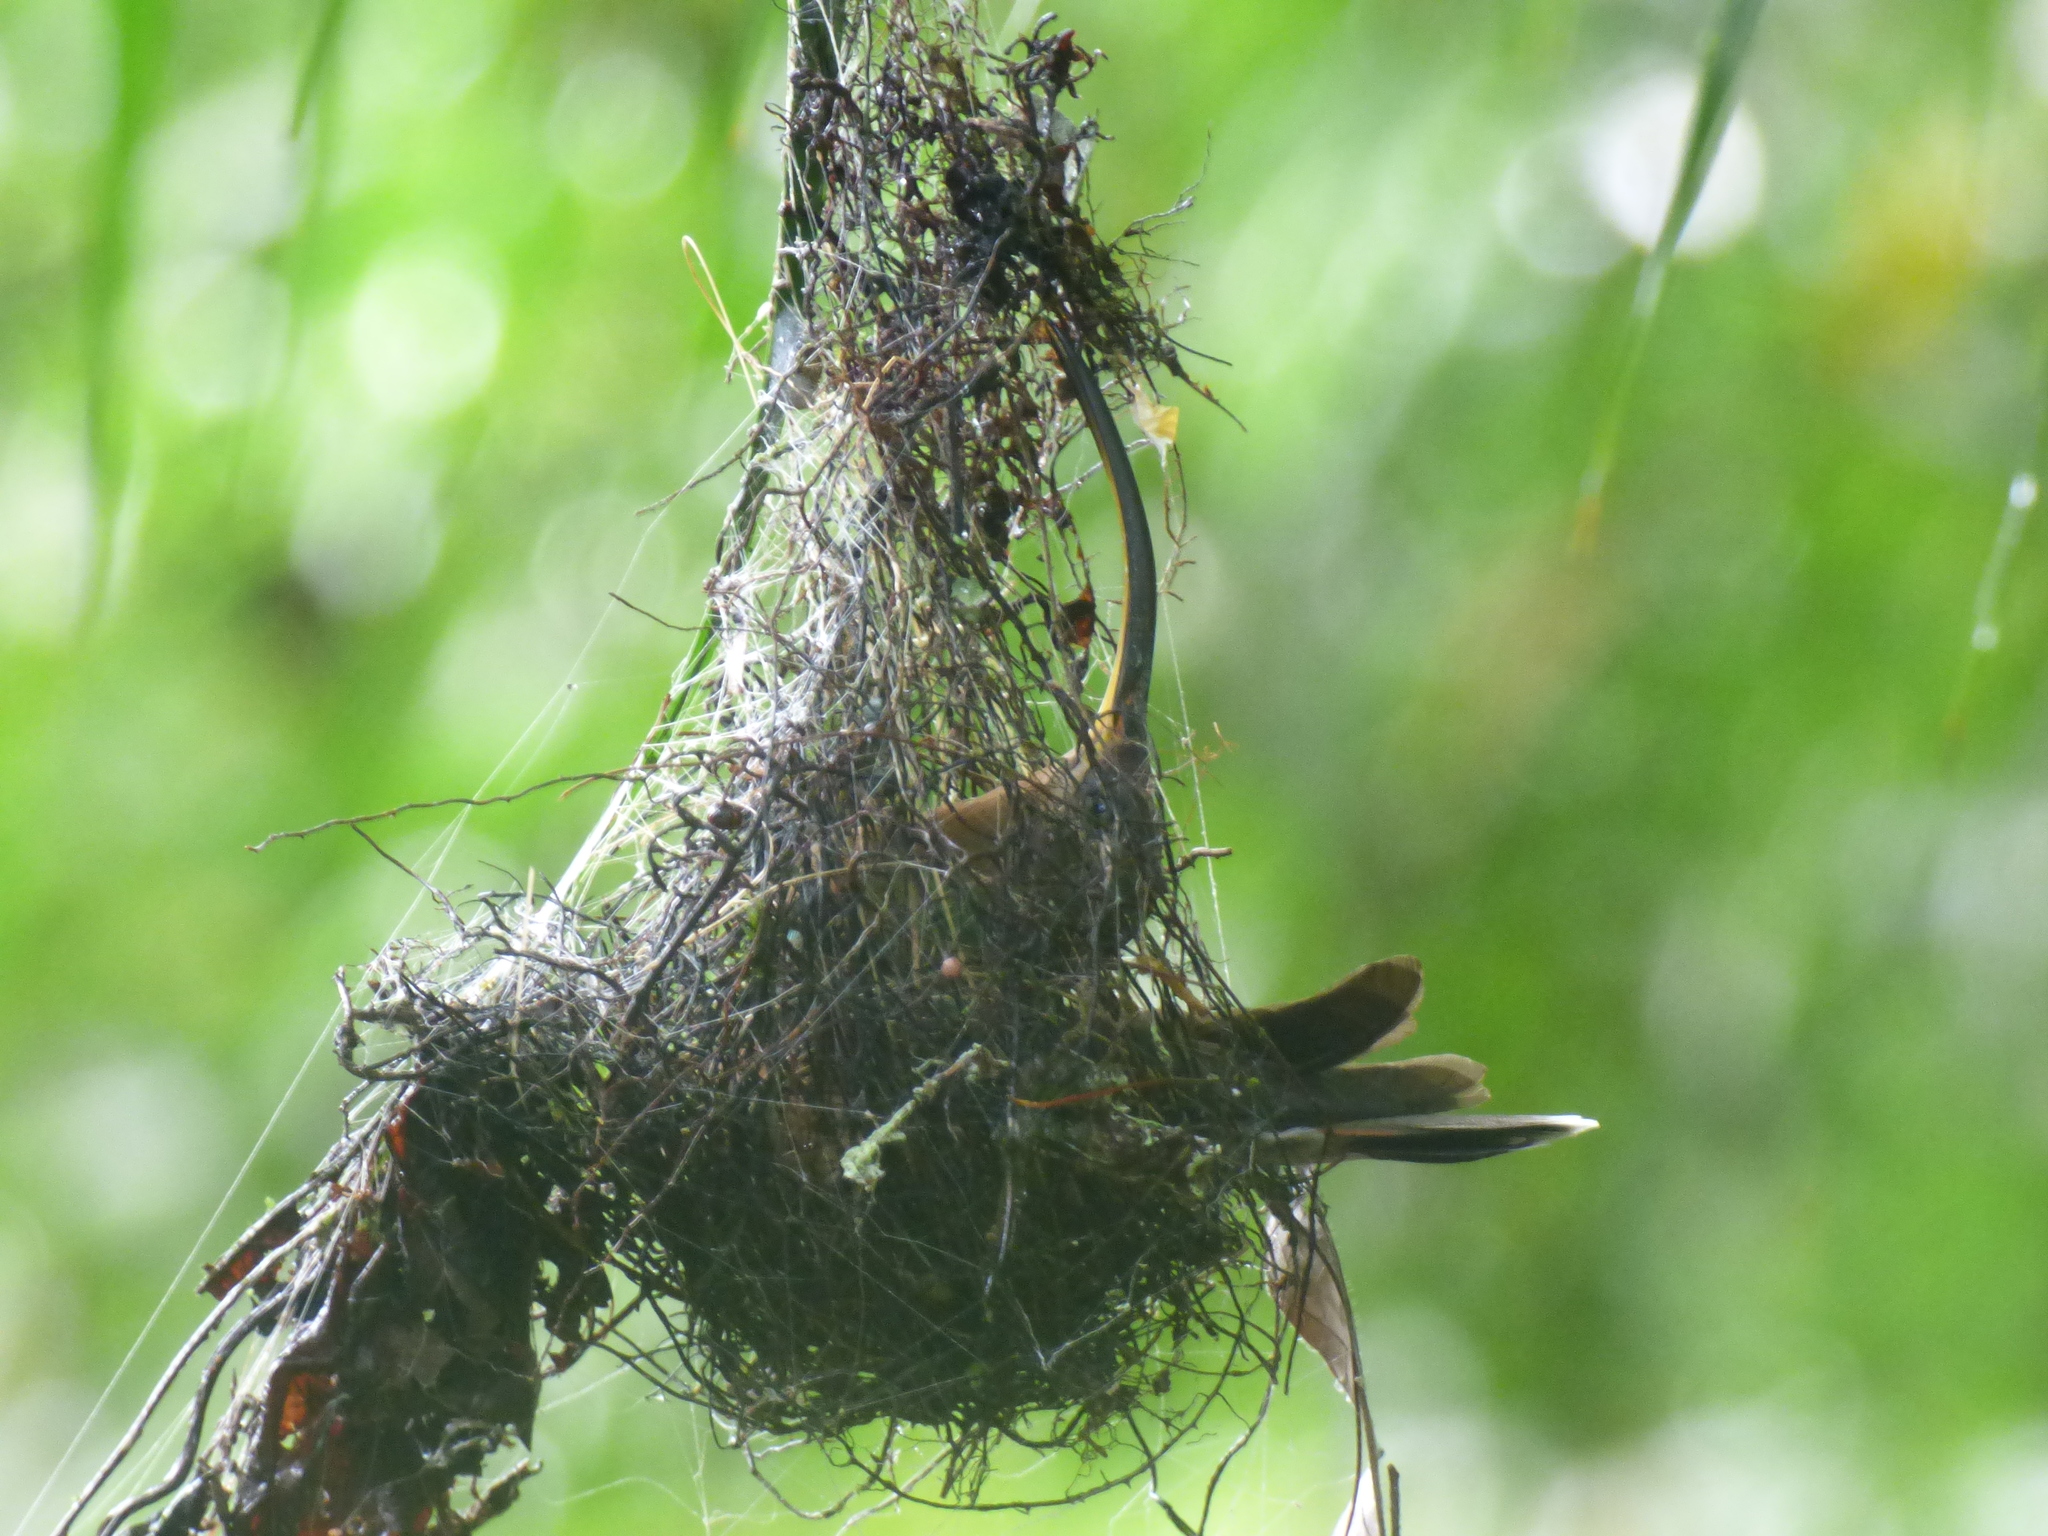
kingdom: Animalia
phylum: Chordata
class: Aves
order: Apodiformes
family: Trochilidae
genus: Glaucis
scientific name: Glaucis hirsutus
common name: Rufous-breasted hermit
